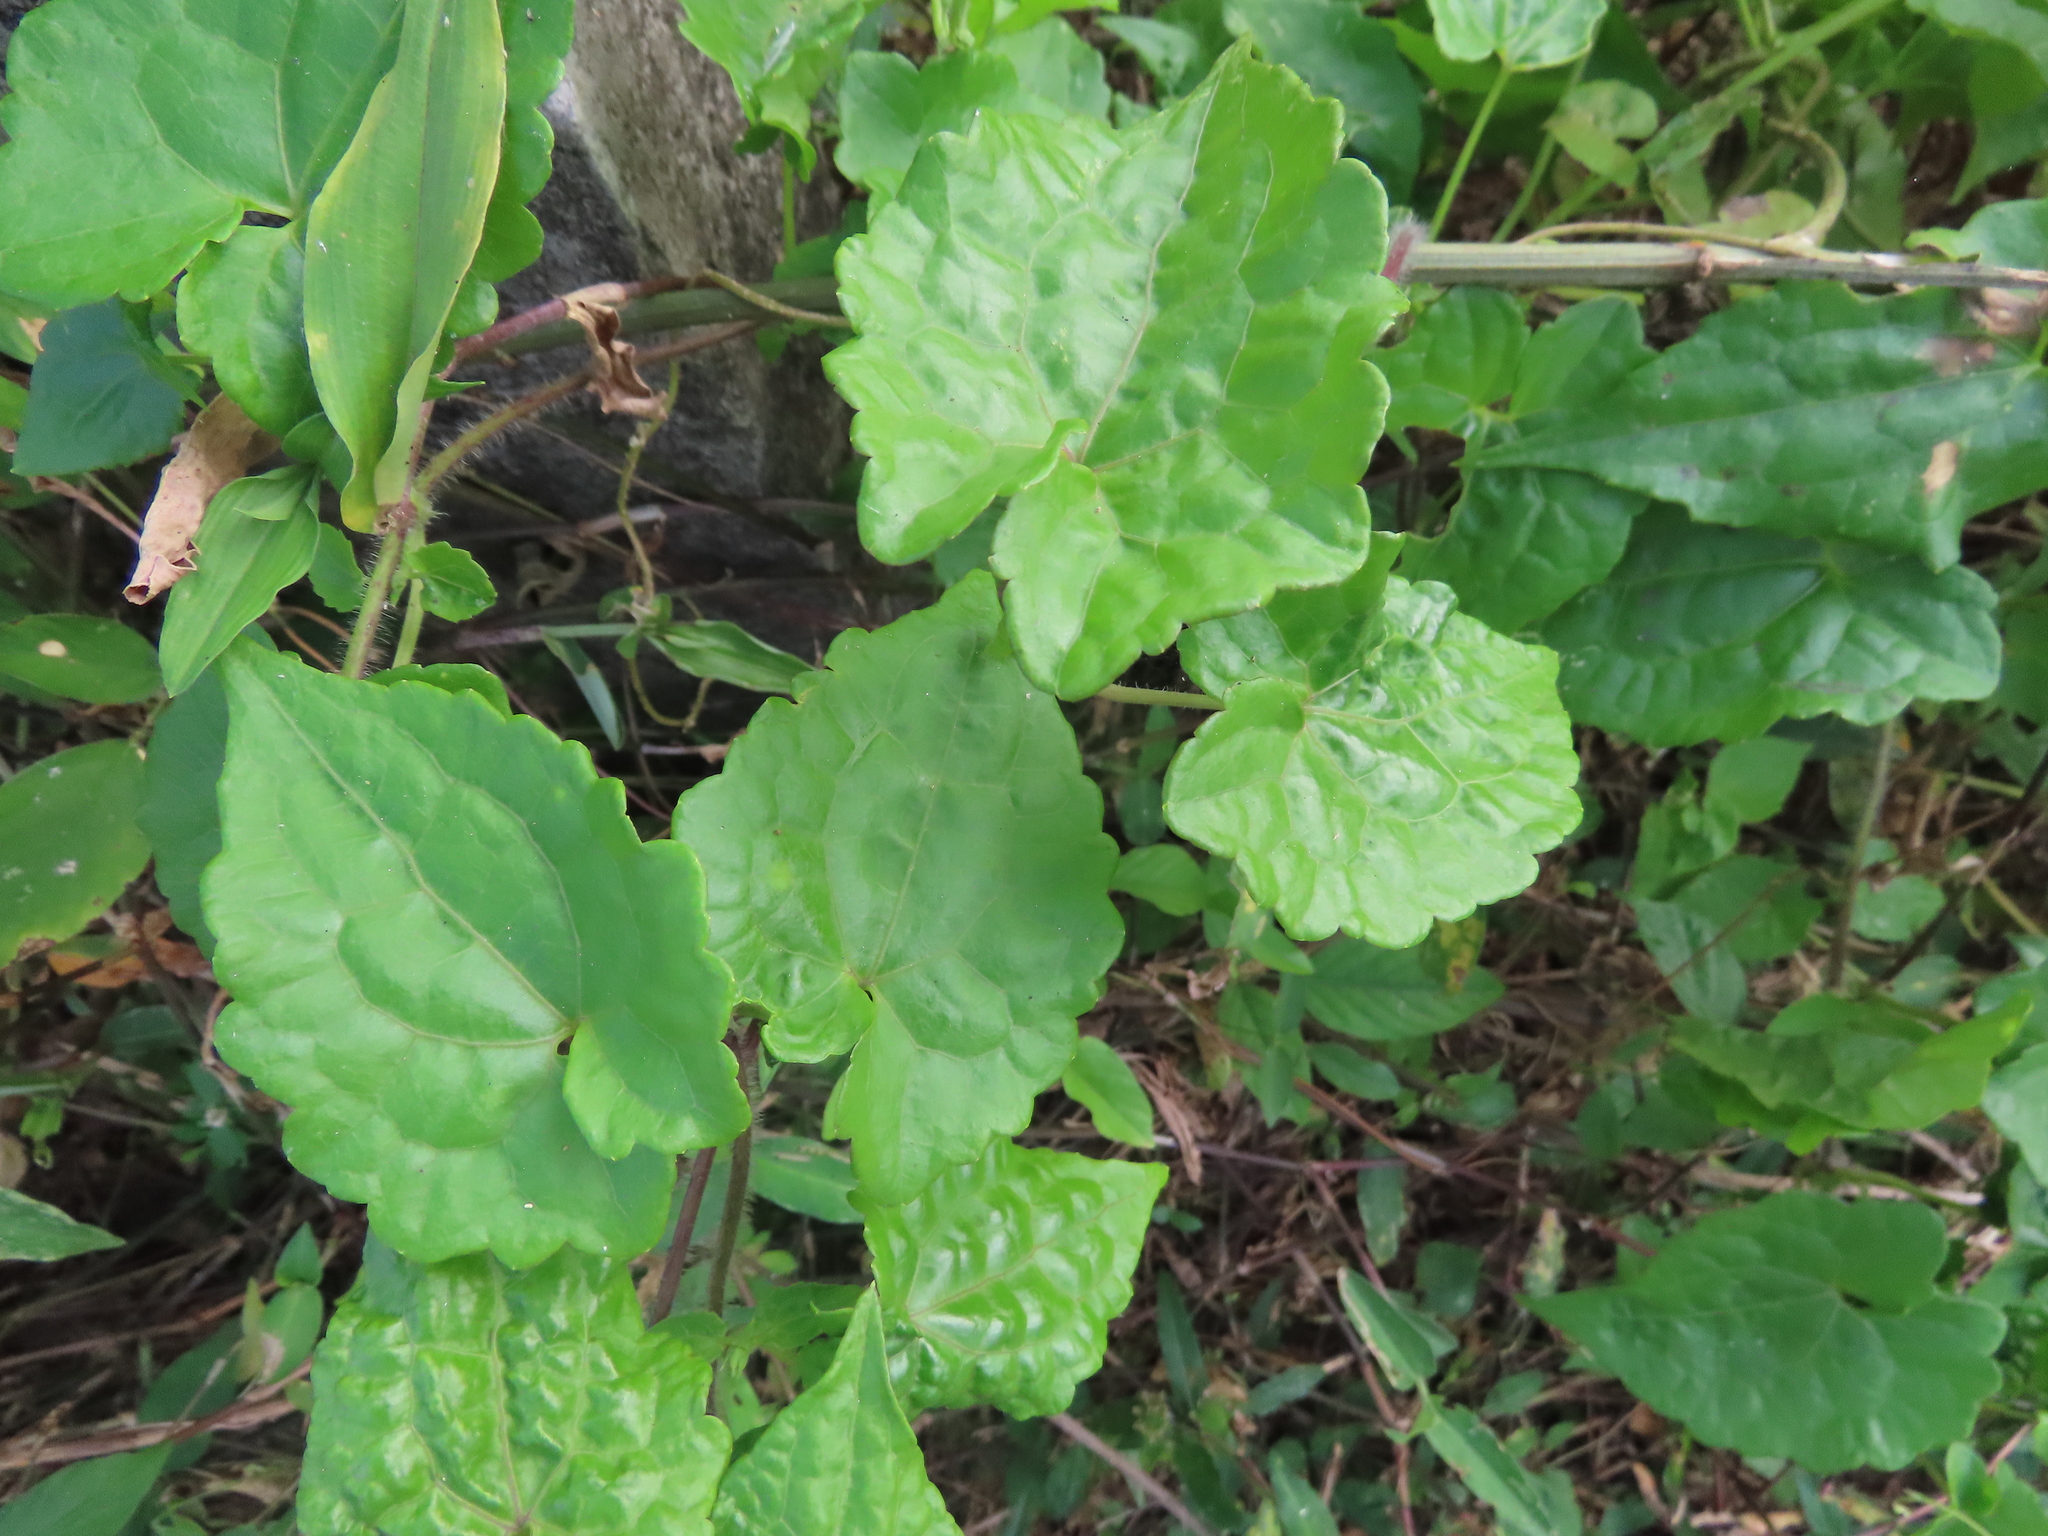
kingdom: Plantae
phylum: Tracheophyta
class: Magnoliopsida
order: Asterales
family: Asteraceae
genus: Mikania
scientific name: Mikania micrantha
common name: Mile-a-minute
